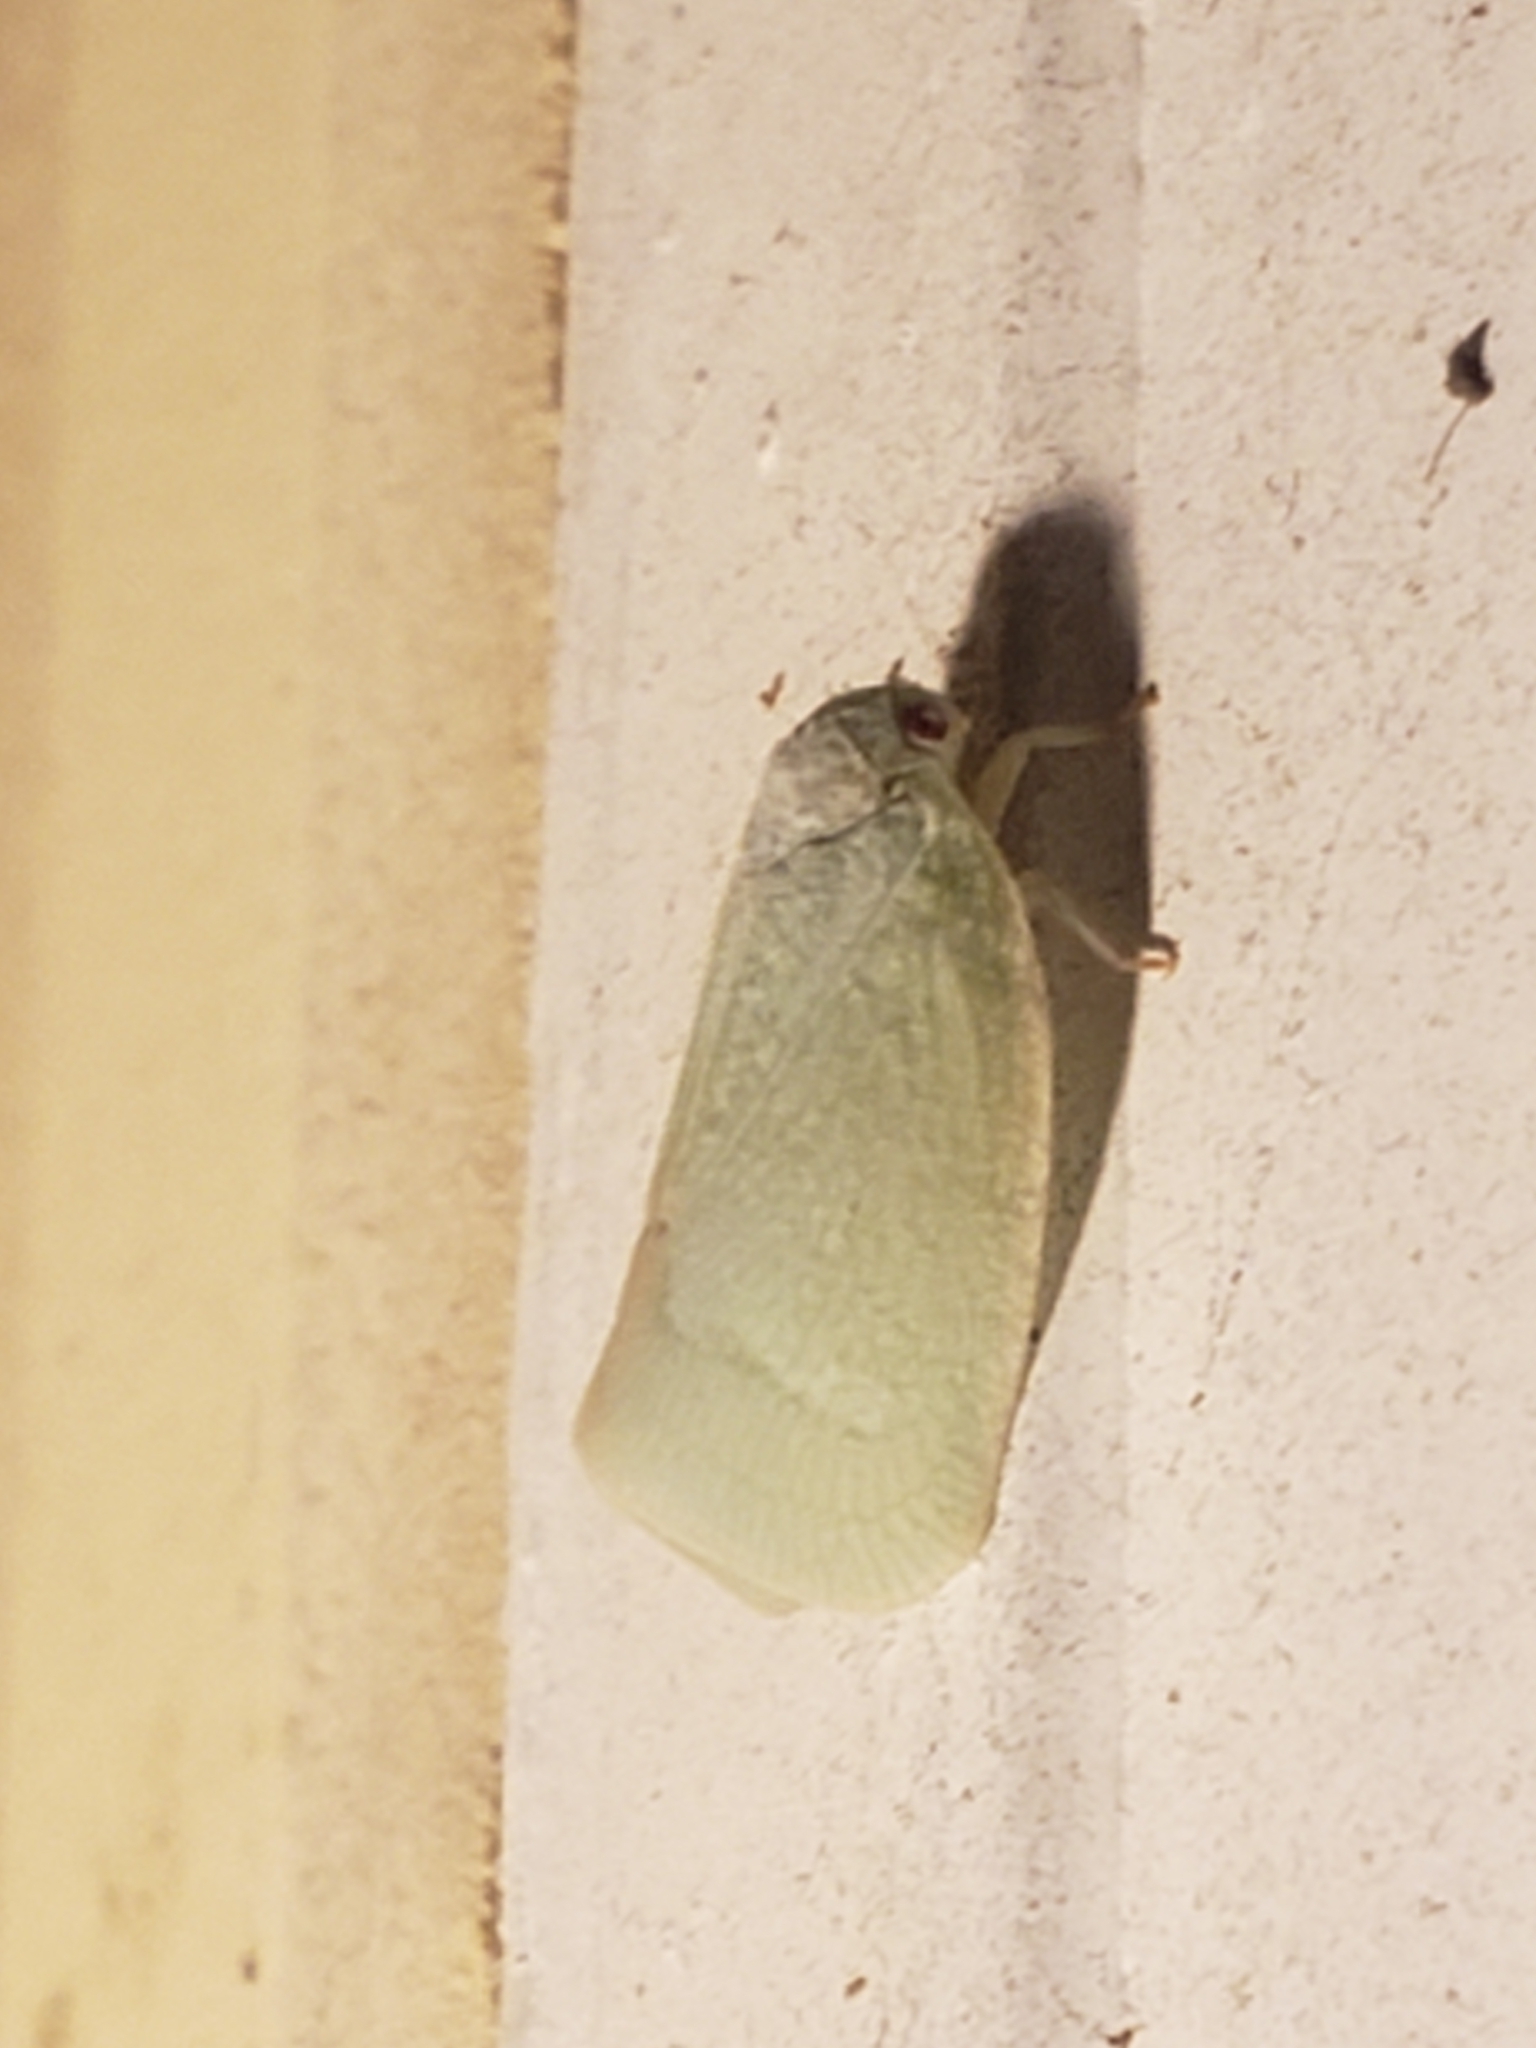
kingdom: Animalia
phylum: Arthropoda
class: Insecta
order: Hemiptera
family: Acanaloniidae
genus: Acanalonia
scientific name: Acanalonia conica
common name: Green cone-headed planthopper
